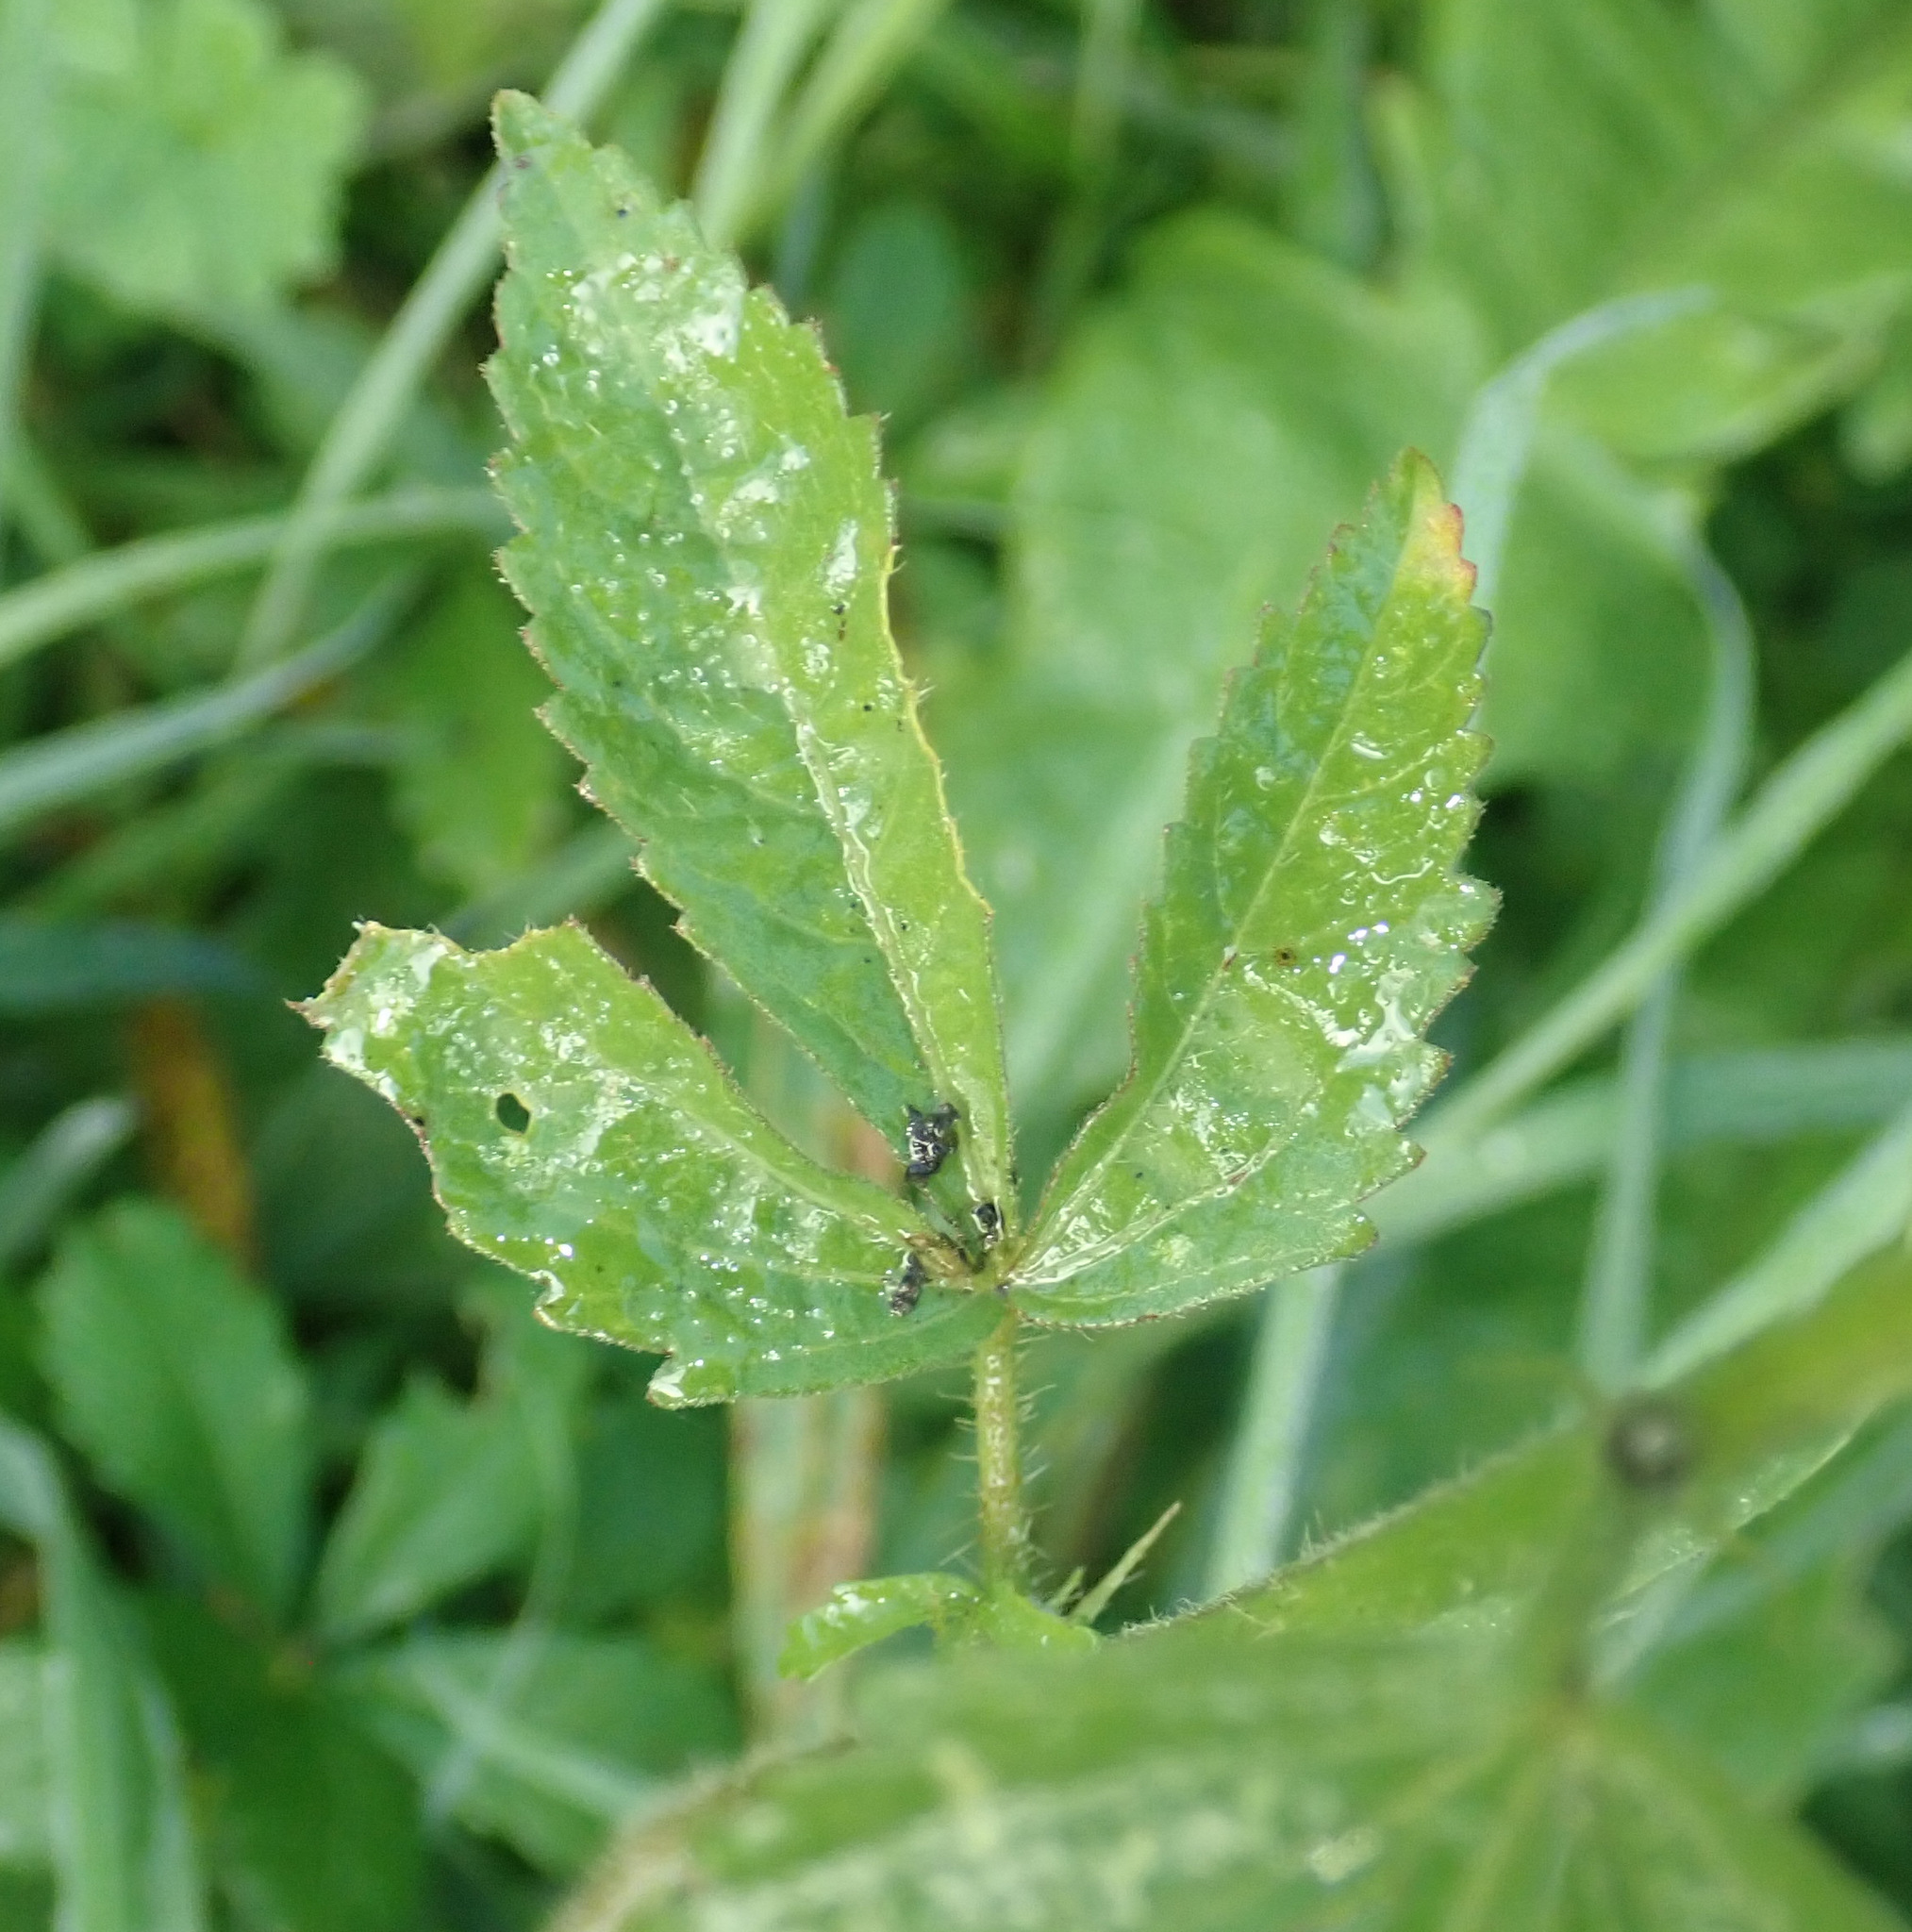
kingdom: Plantae
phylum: Tracheophyta
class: Magnoliopsida
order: Malvales
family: Malvaceae
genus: Hibiscus
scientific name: Hibiscus trionum
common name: Bladder ketmia
